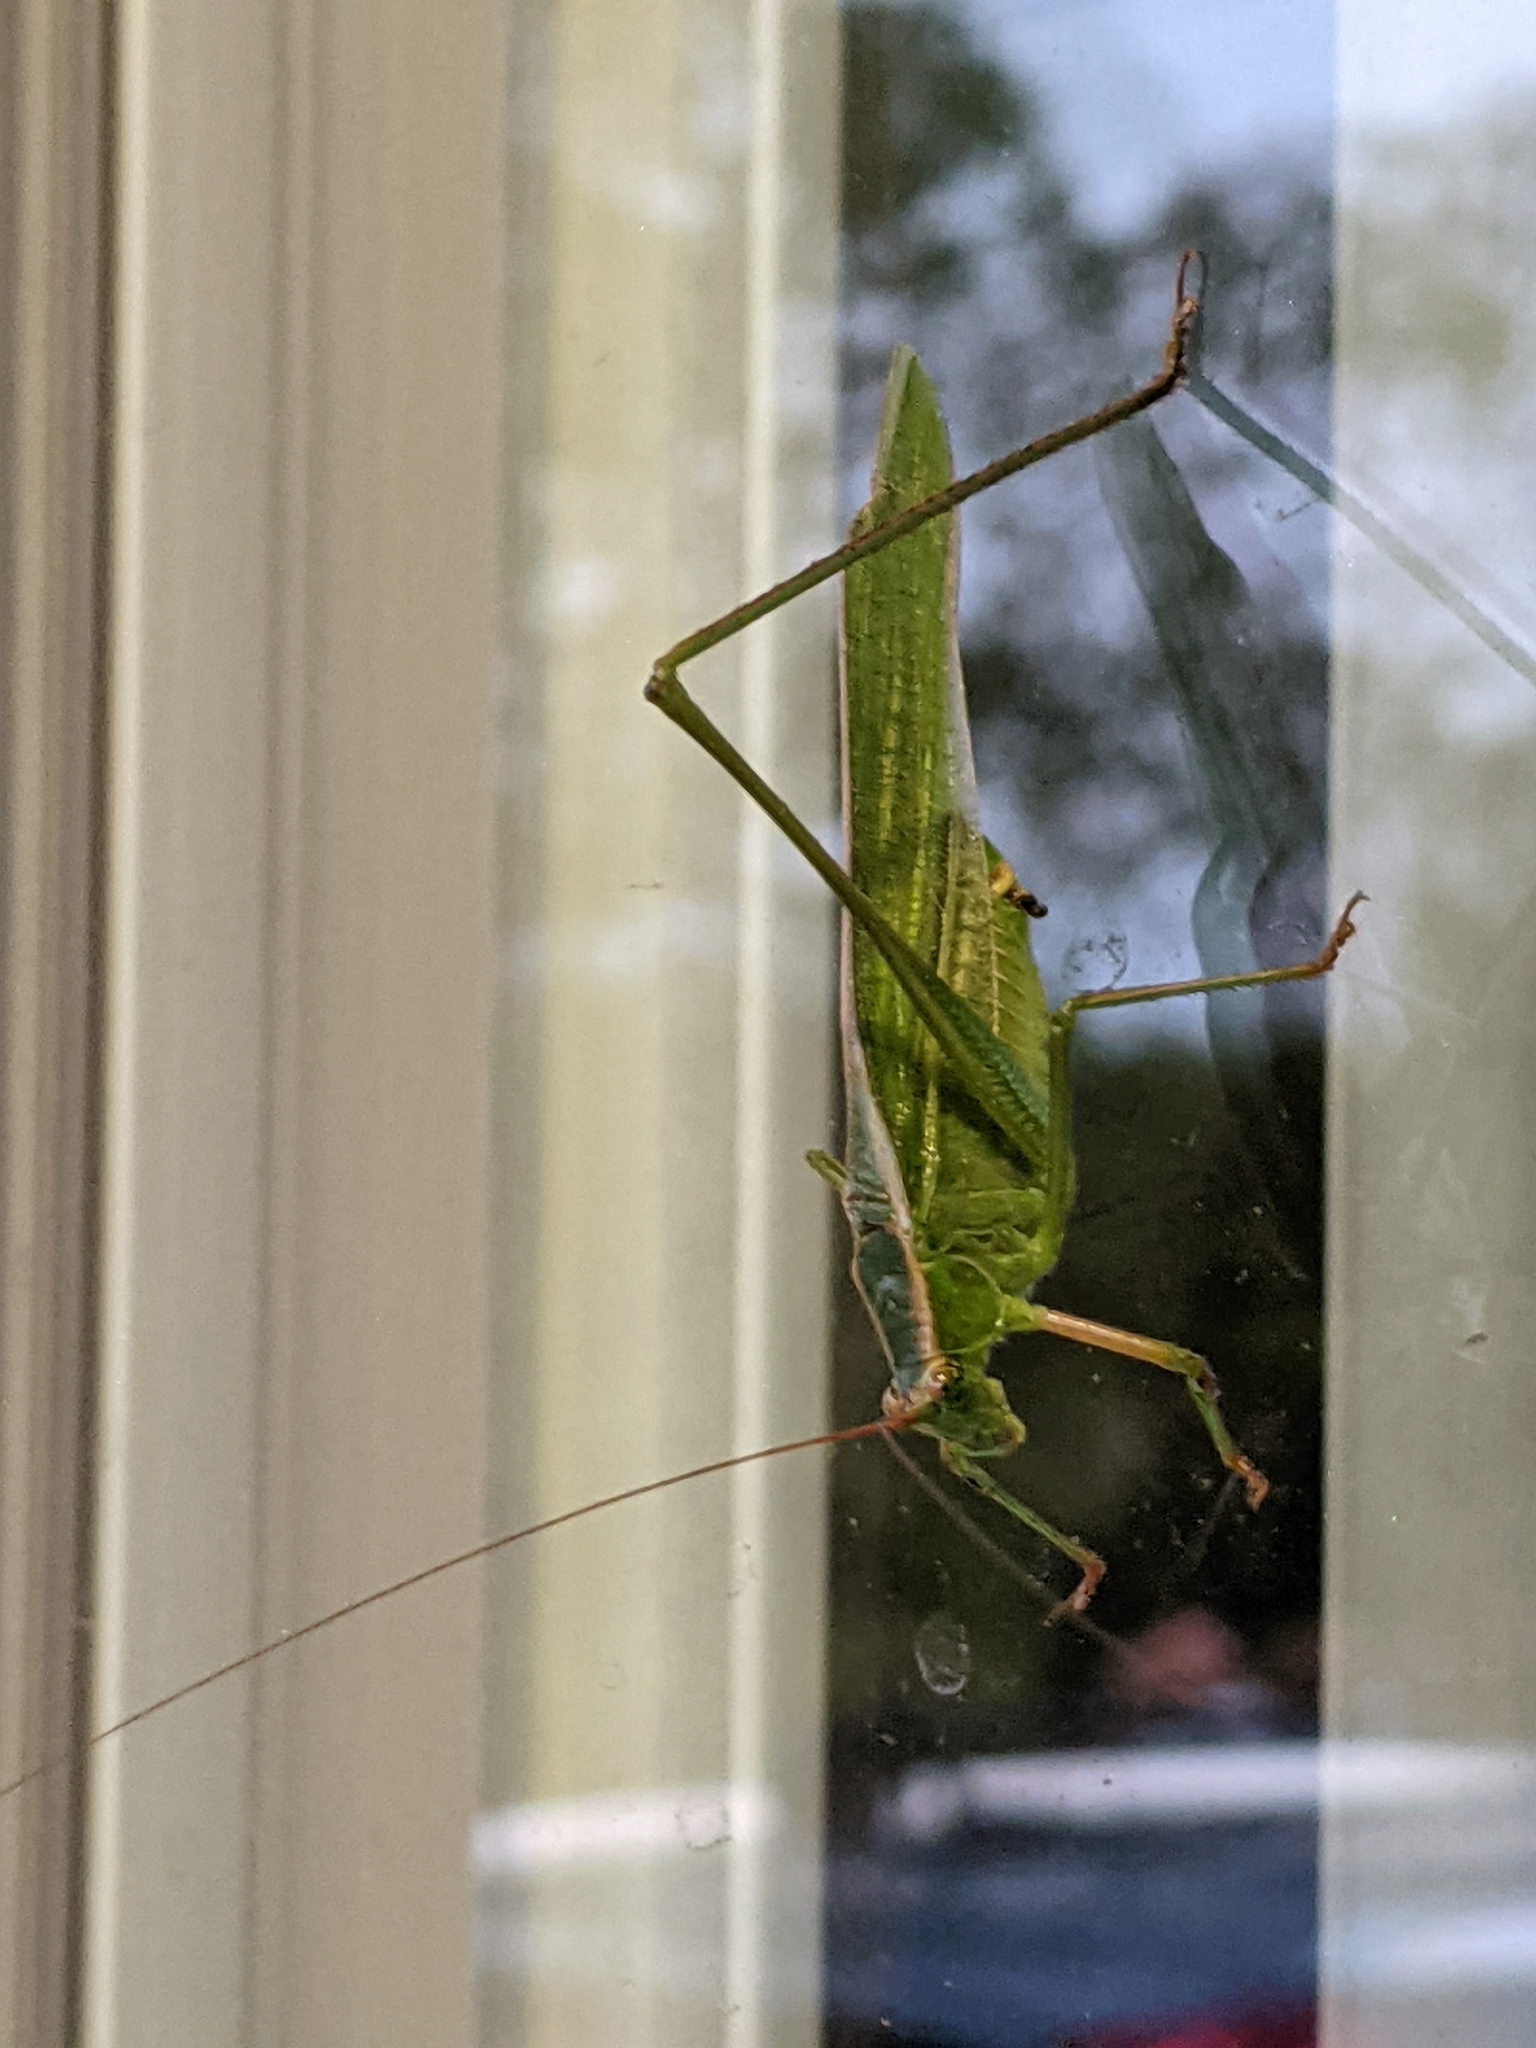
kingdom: Animalia
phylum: Arthropoda
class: Insecta
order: Orthoptera
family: Tettigoniidae
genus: Scudderia
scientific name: Scudderia
